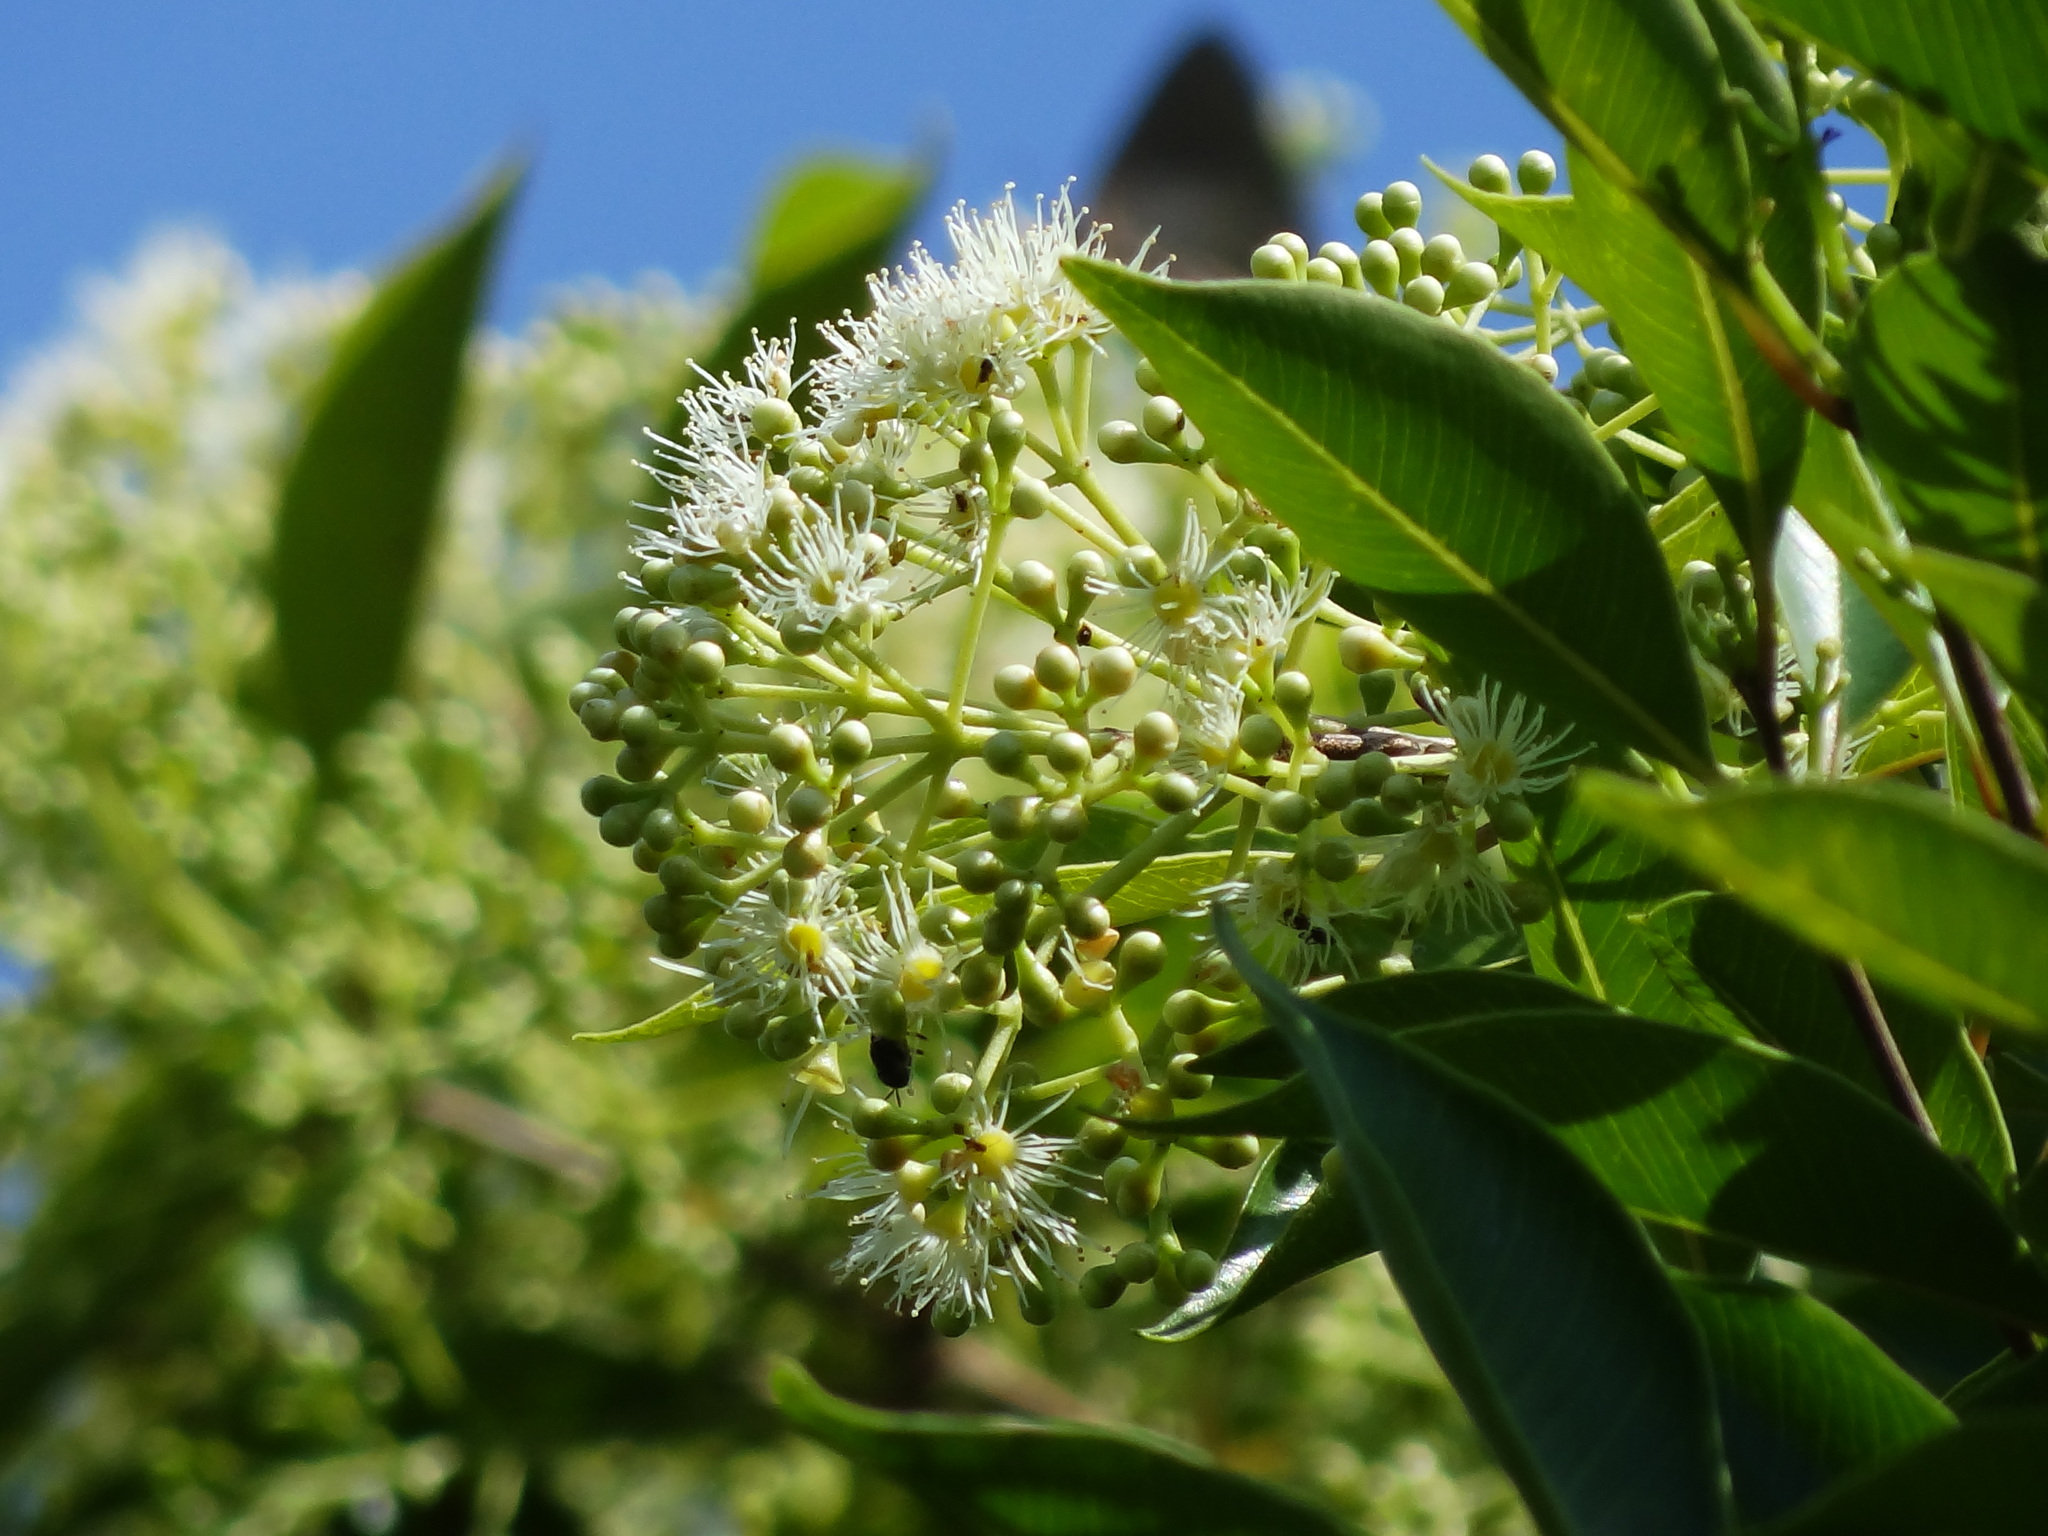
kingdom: Plantae
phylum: Tracheophyta
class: Magnoliopsida
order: Myrtales
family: Myrtaceae
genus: Syzygium
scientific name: Syzygium formosanum
